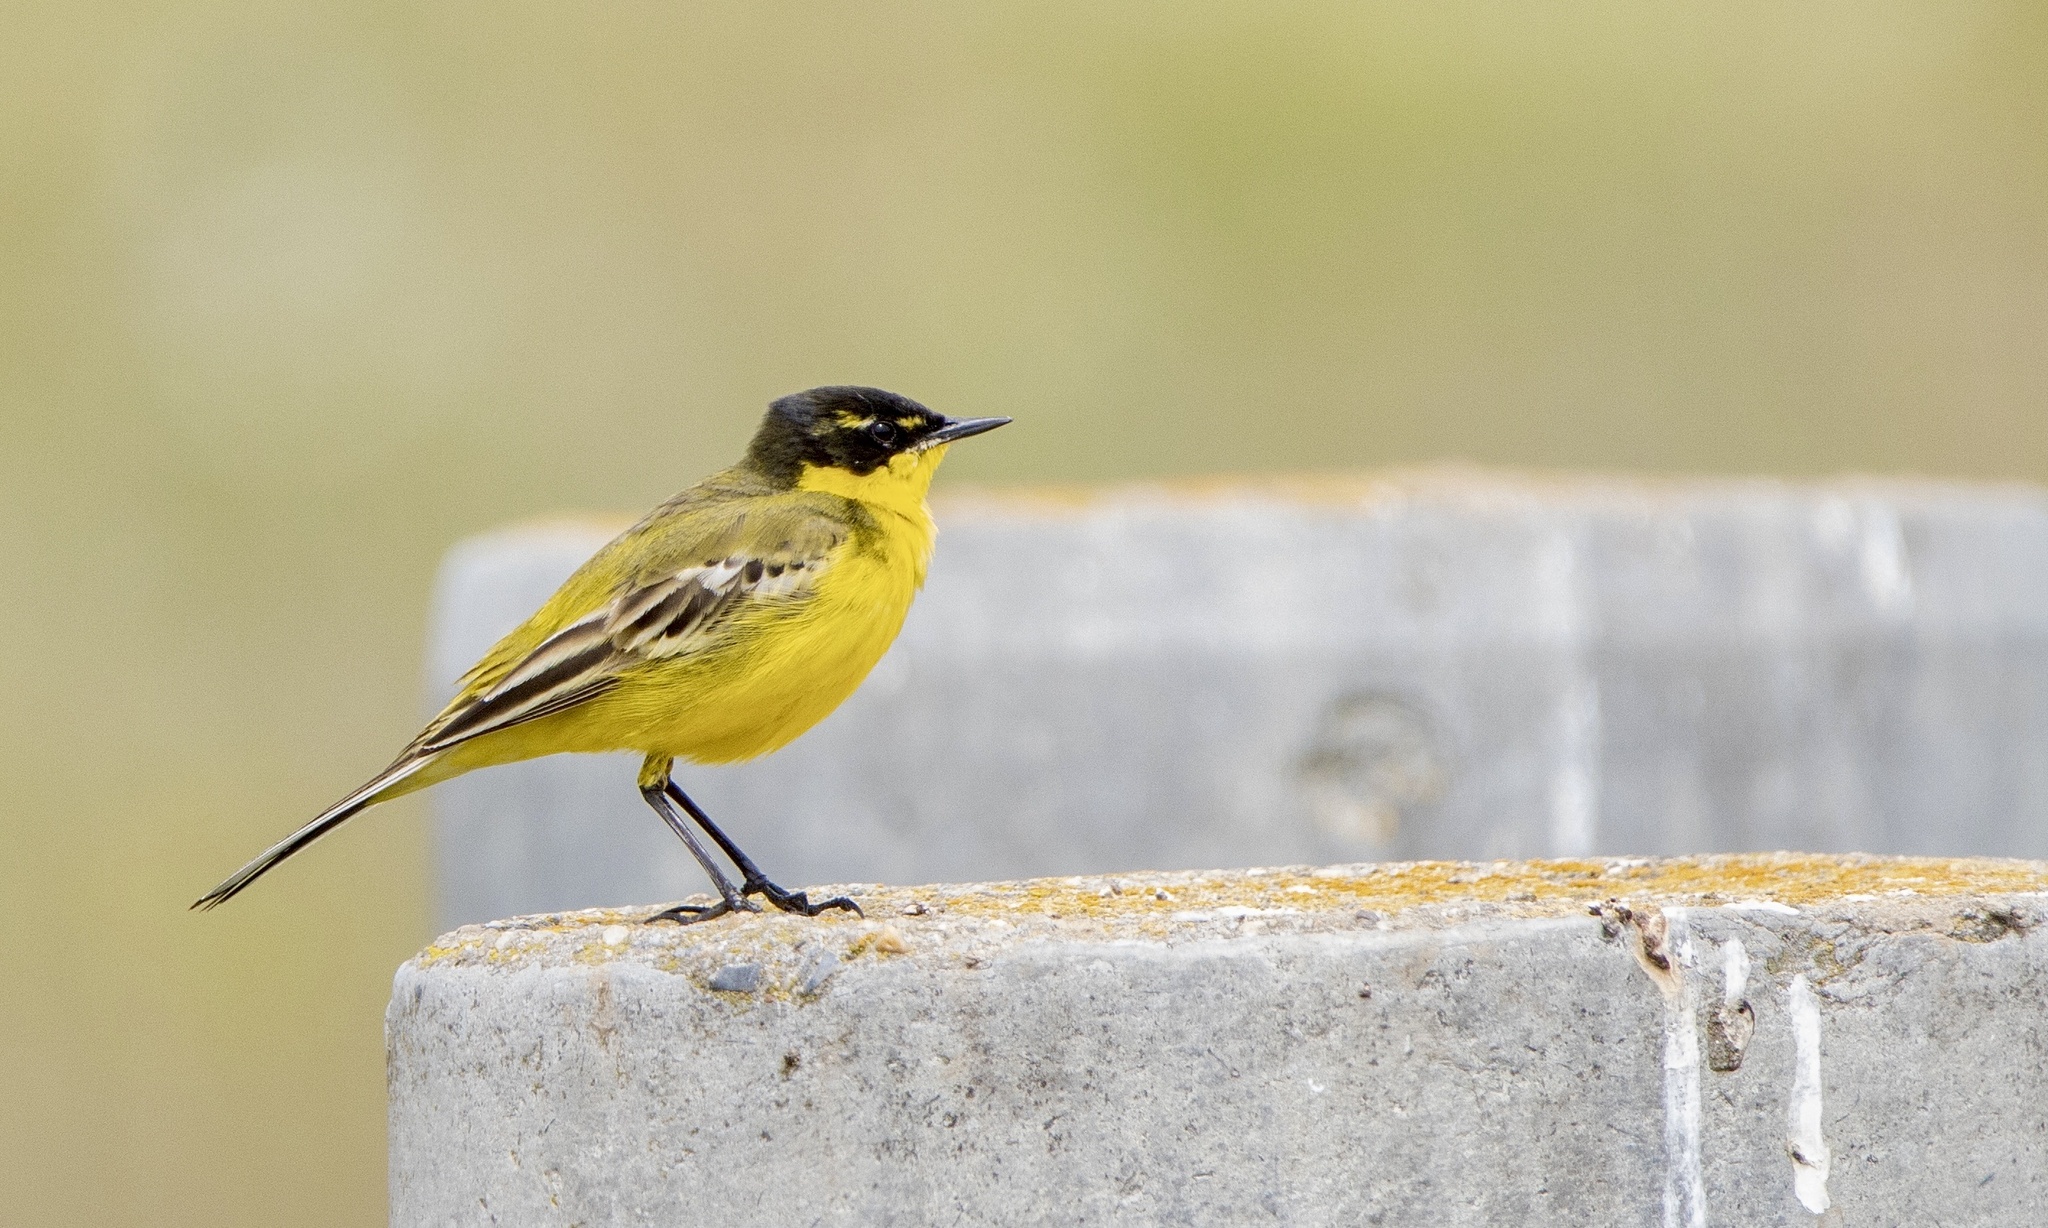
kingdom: Animalia
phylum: Chordata
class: Aves
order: Passeriformes
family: Motacillidae
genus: Motacilla
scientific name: Motacilla flava
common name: Western yellow wagtail
